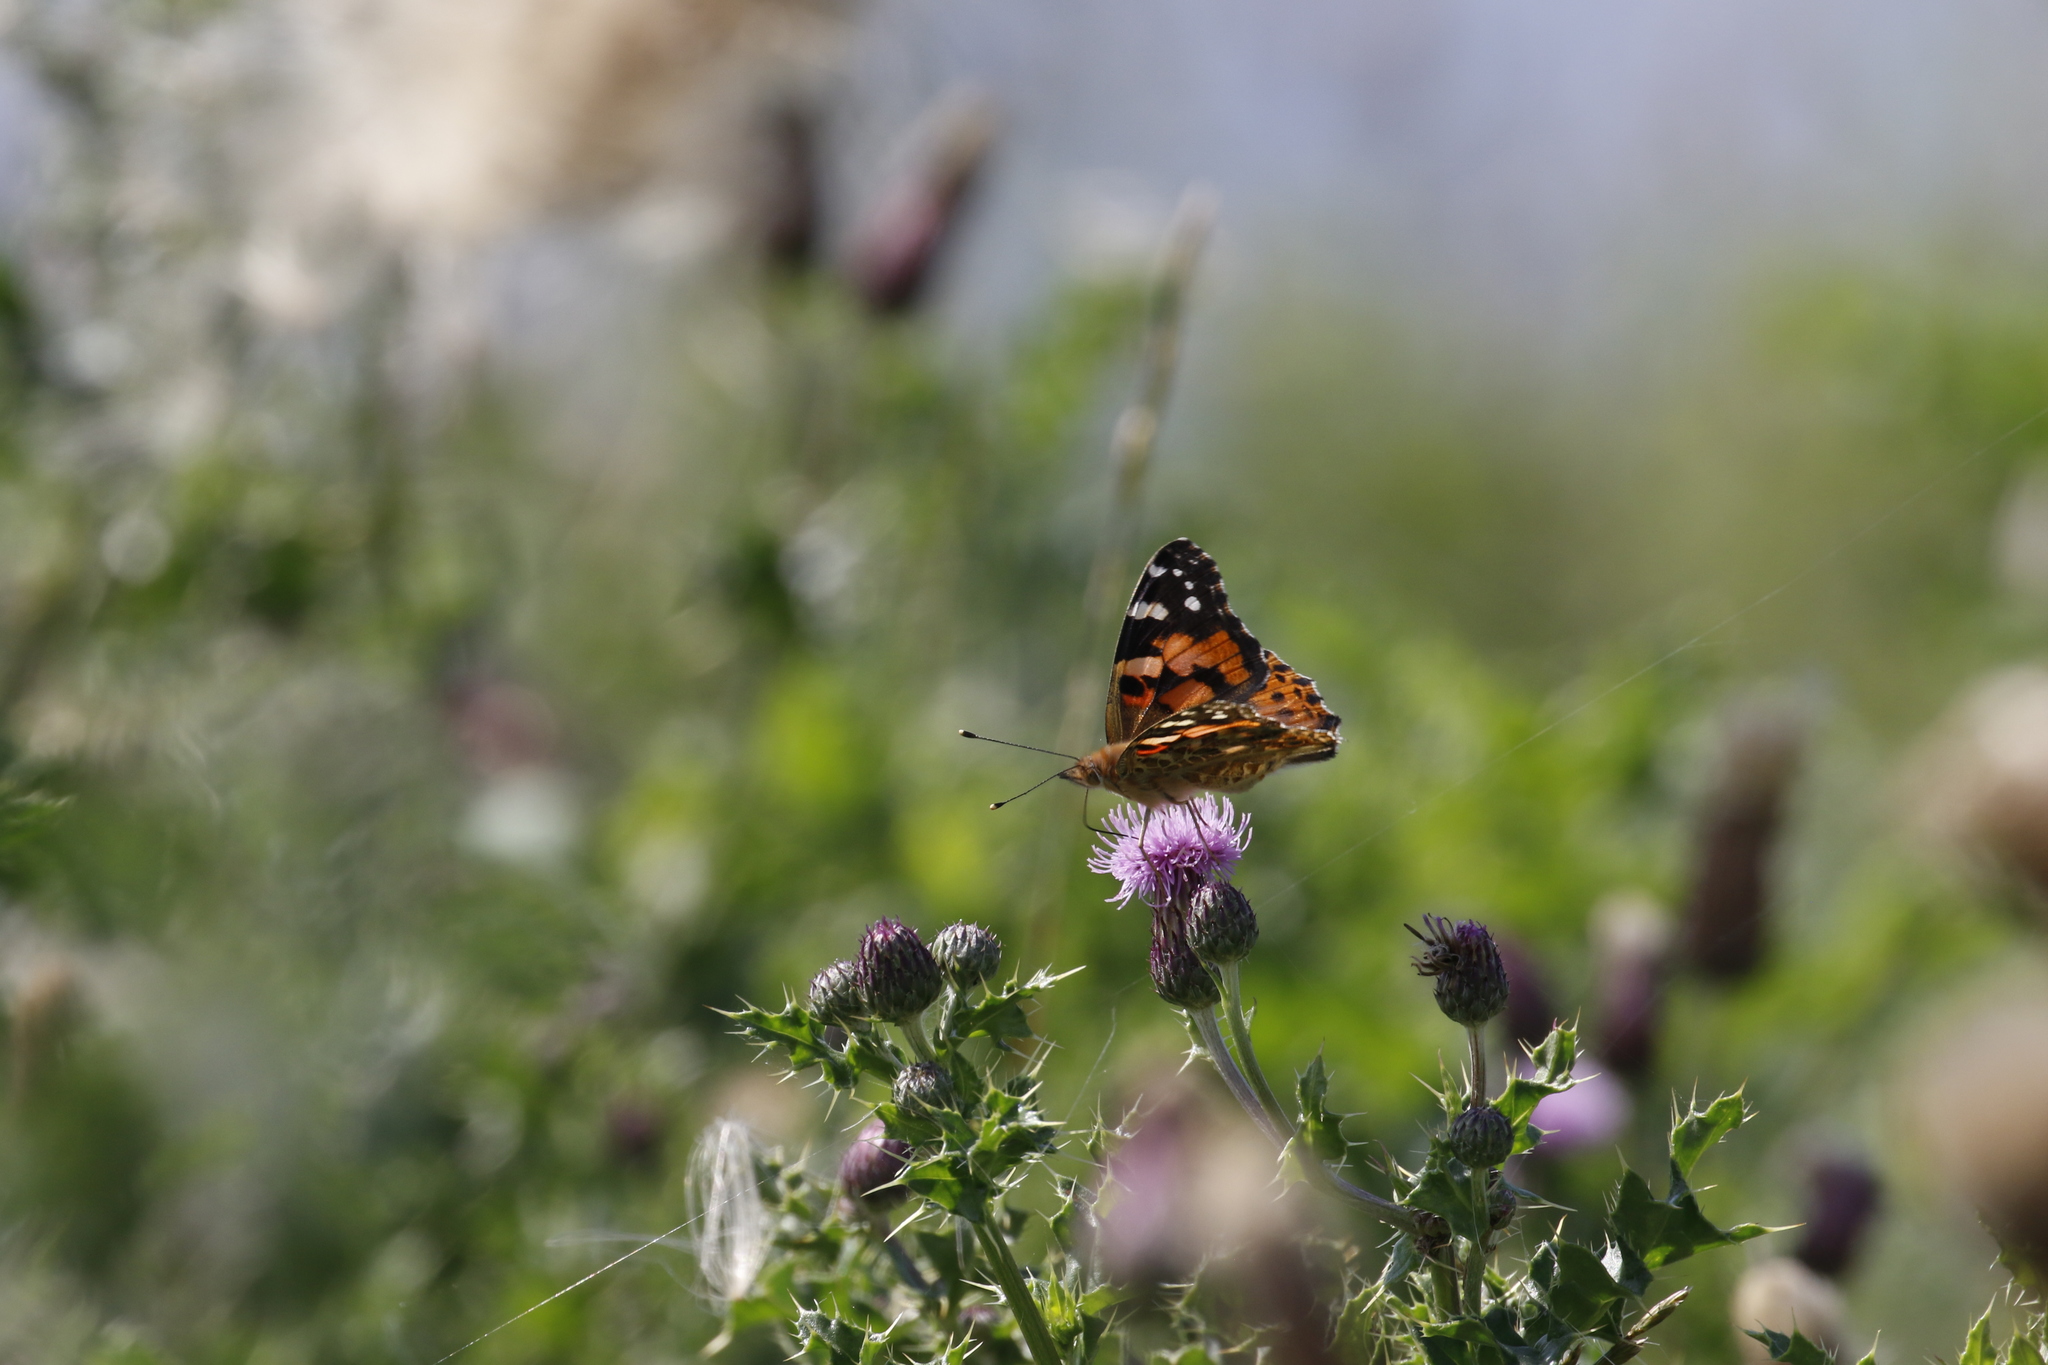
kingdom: Animalia
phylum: Arthropoda
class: Insecta
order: Lepidoptera
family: Nymphalidae
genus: Vanessa
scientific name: Vanessa cardui
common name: Painted lady
